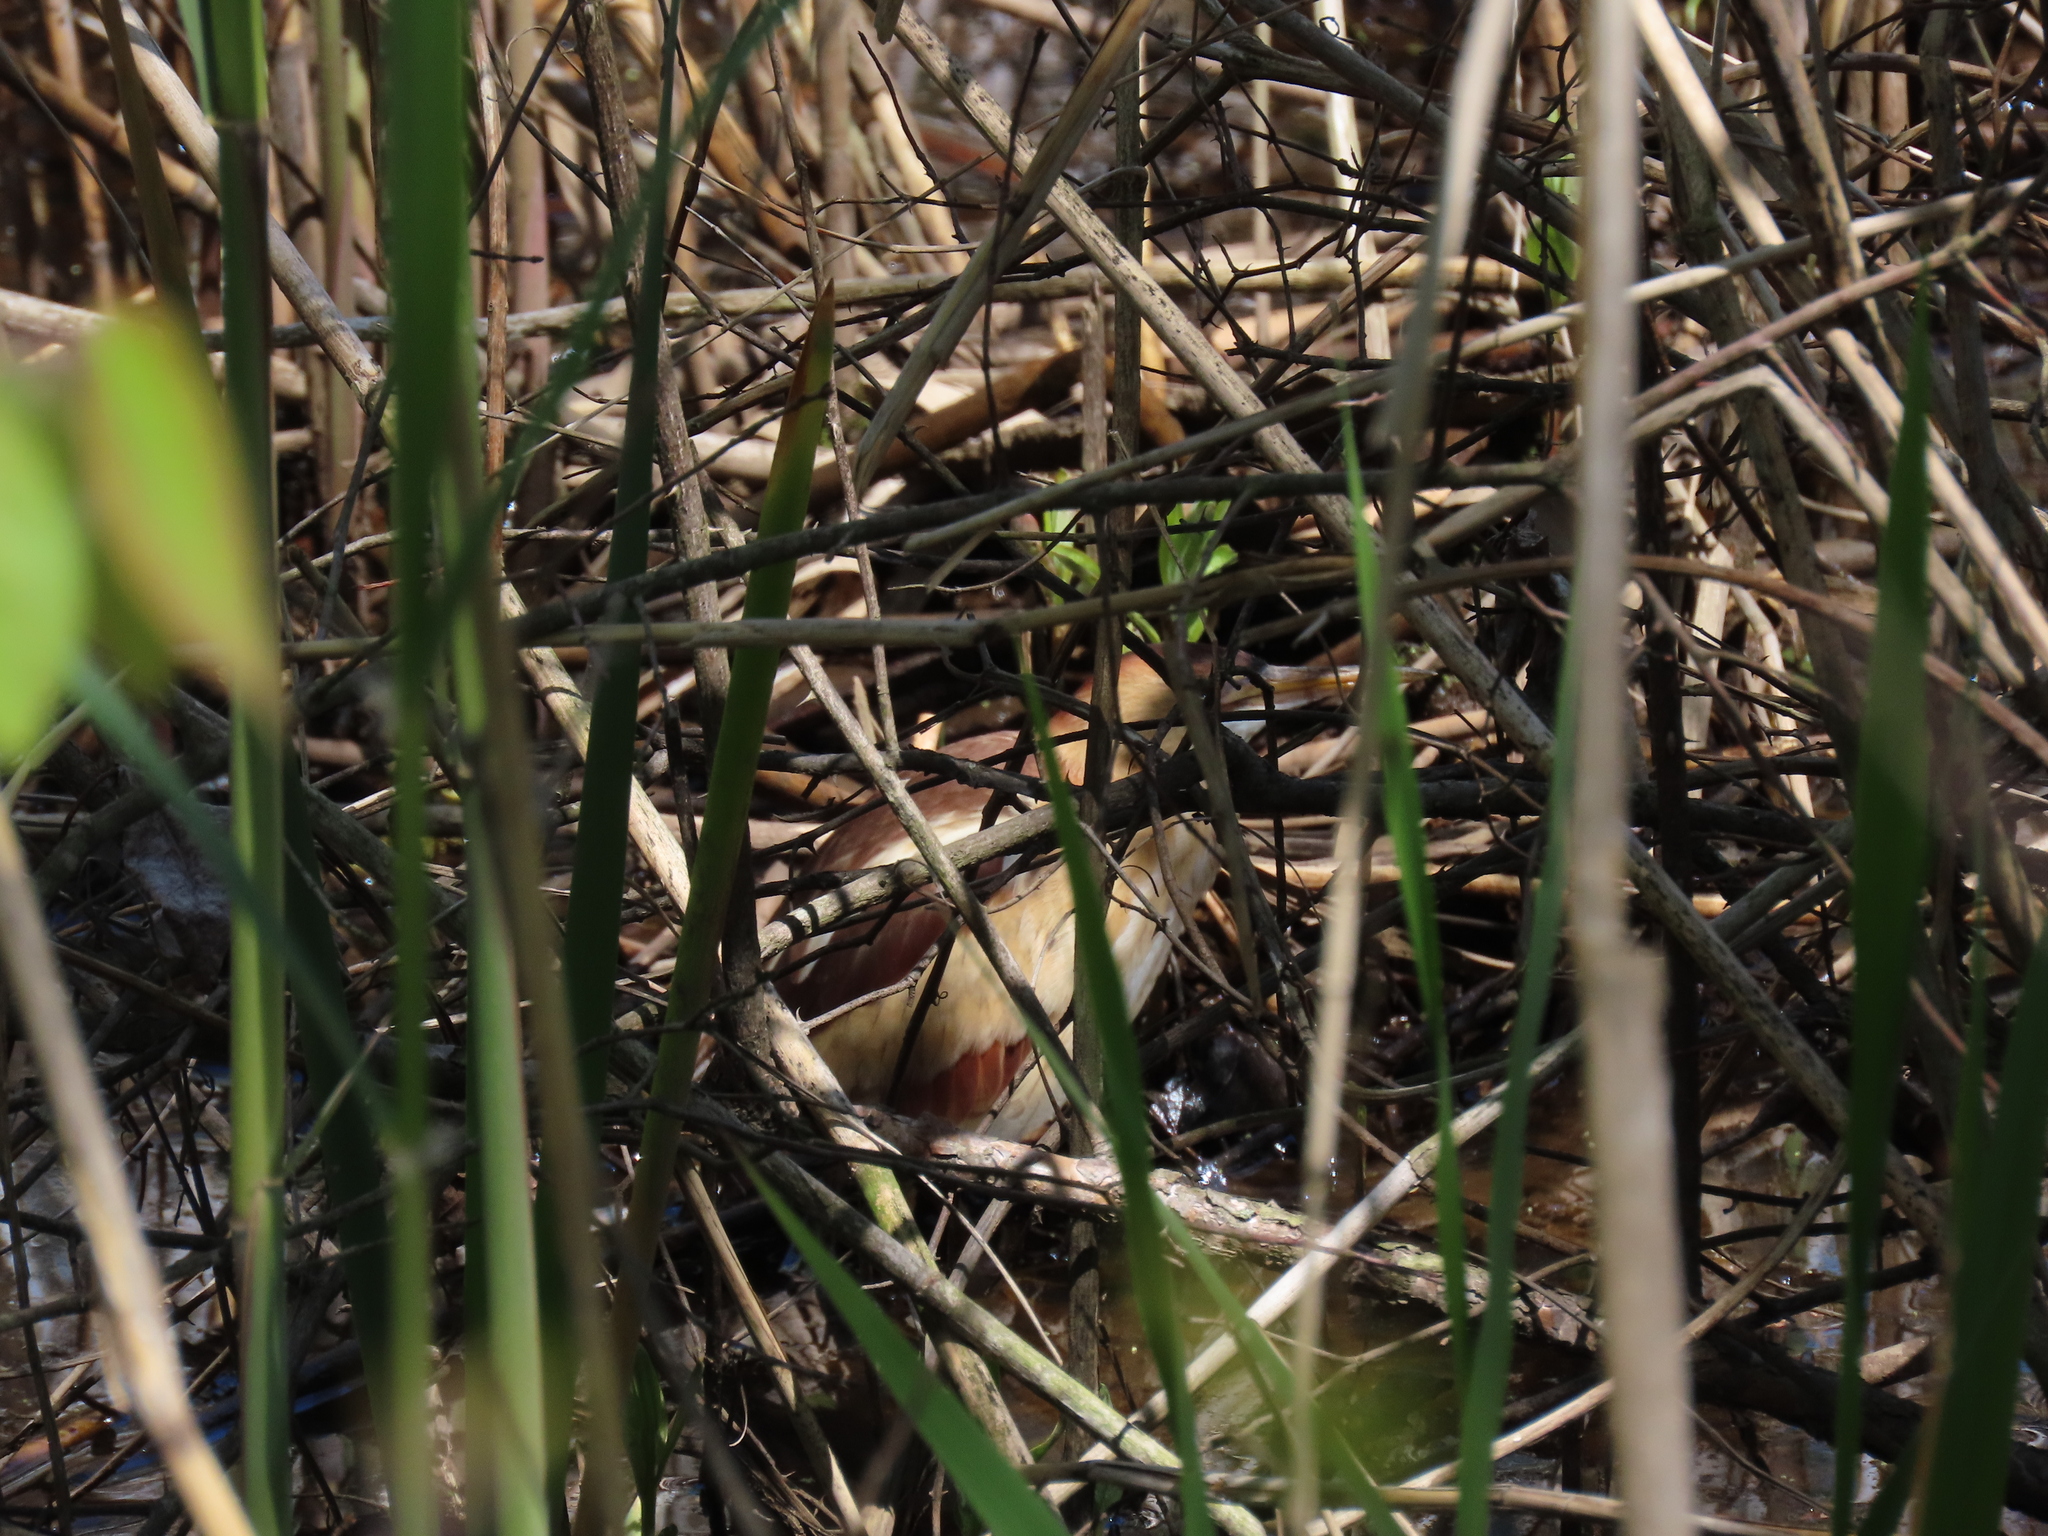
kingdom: Animalia
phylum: Chordata
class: Aves
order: Pelecaniformes
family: Ardeidae
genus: Ixobrychus
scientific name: Ixobrychus exilis
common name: Least bittern
